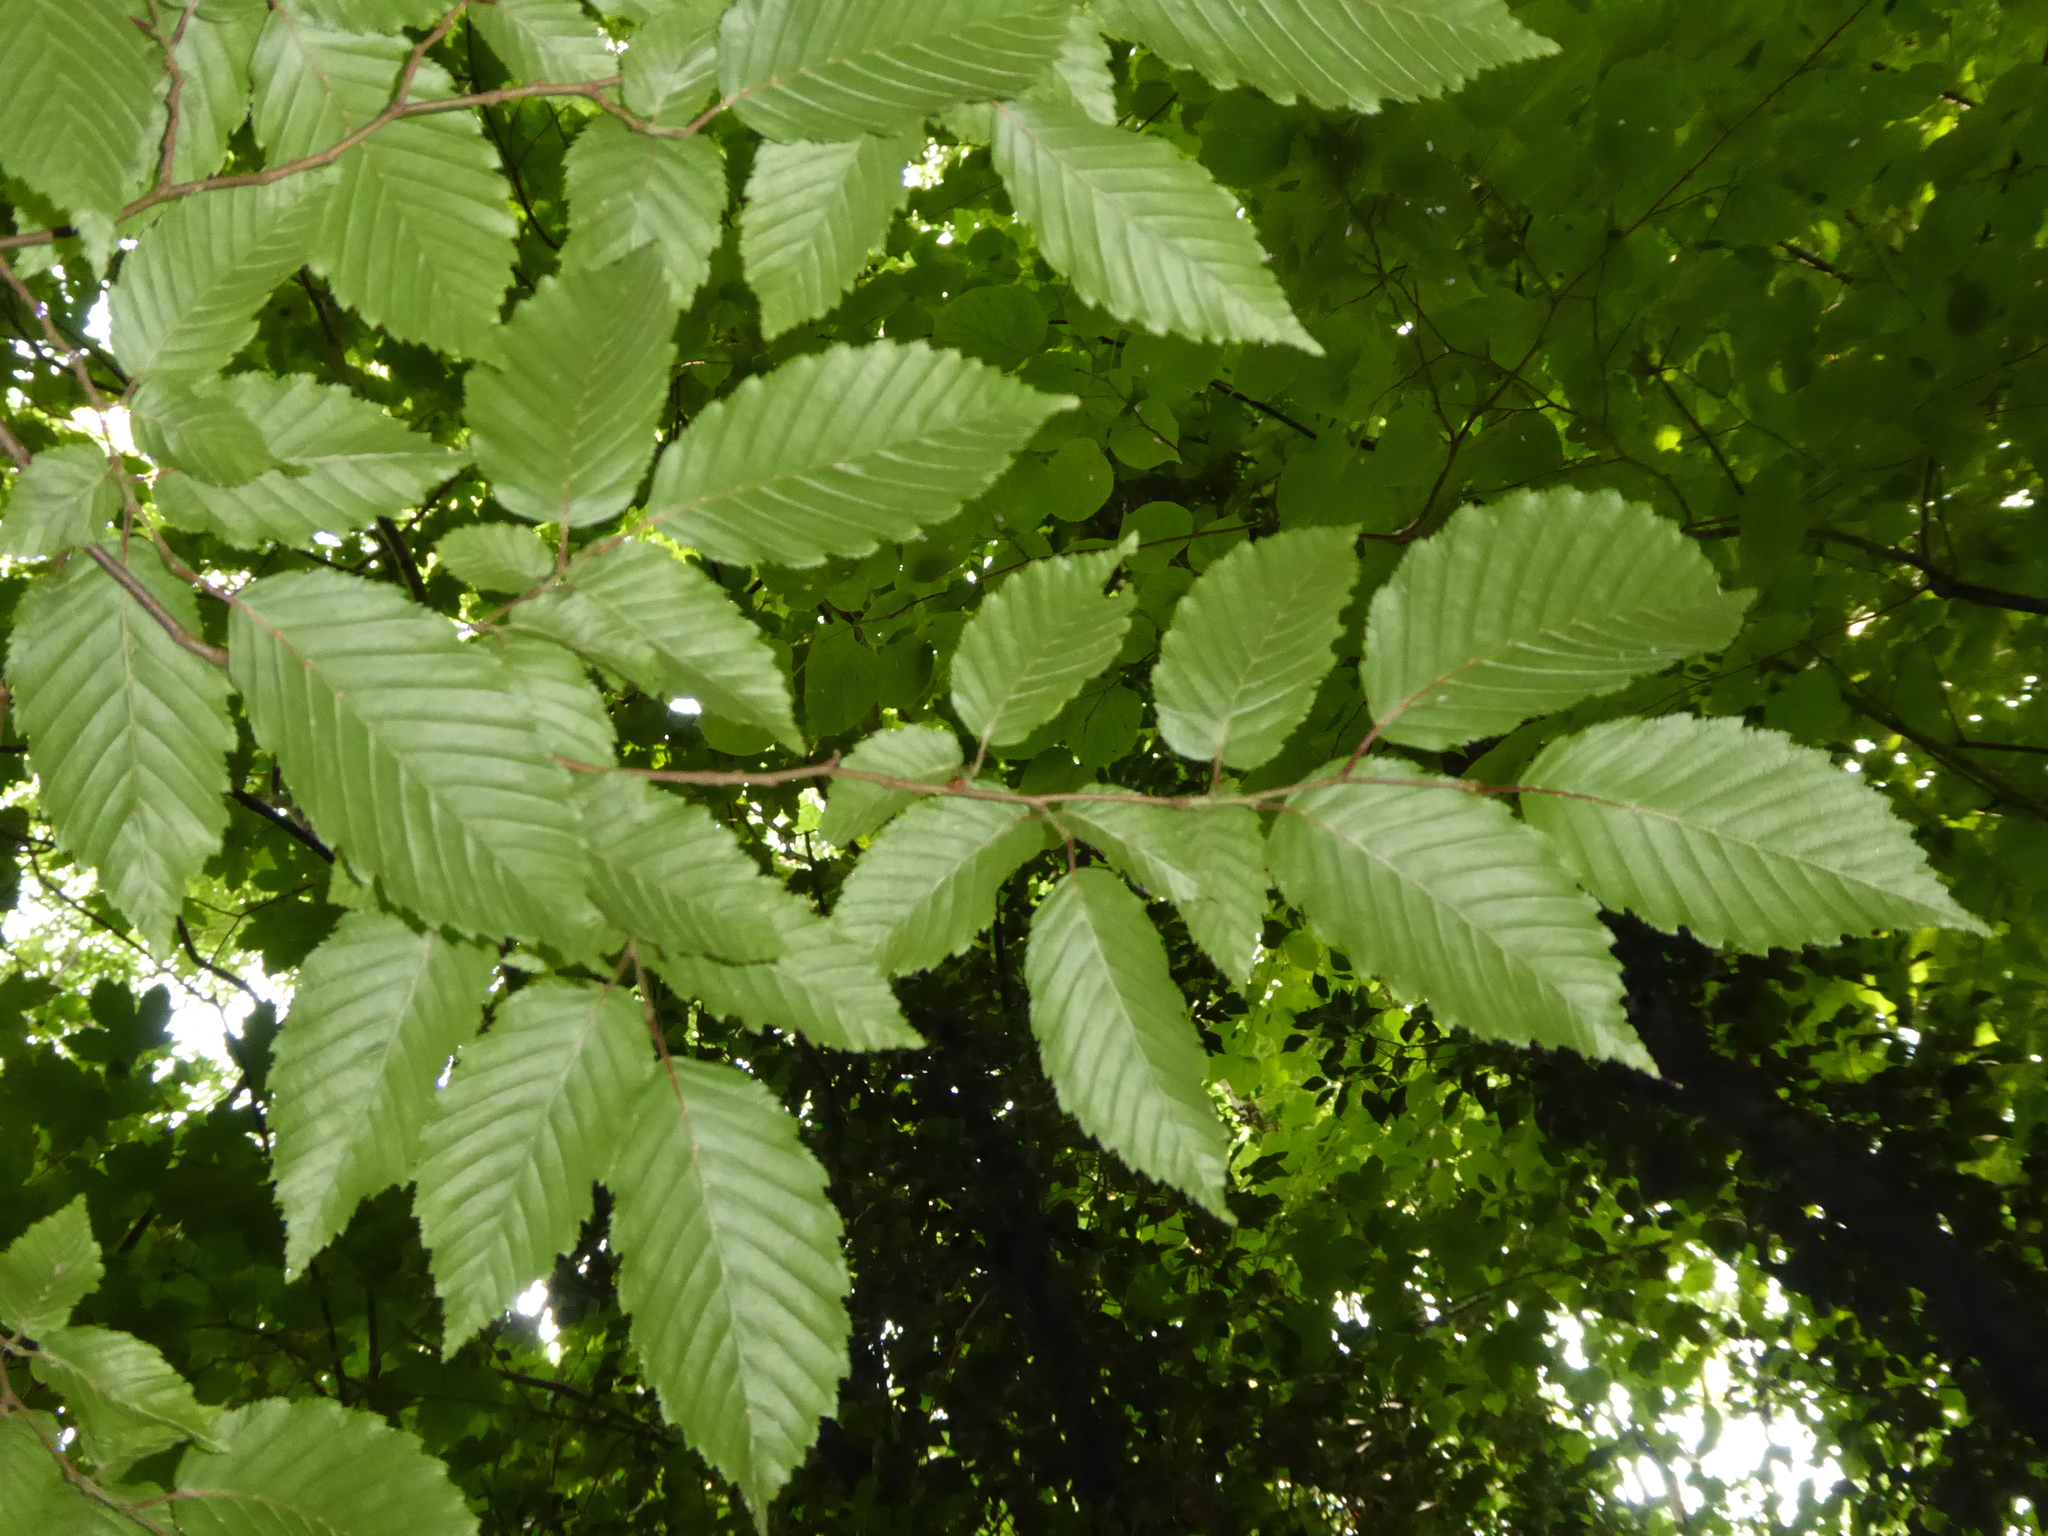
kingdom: Plantae
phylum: Tracheophyta
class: Magnoliopsida
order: Fagales
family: Betulaceae
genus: Carpinus
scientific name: Carpinus betulus
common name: Hornbeam
